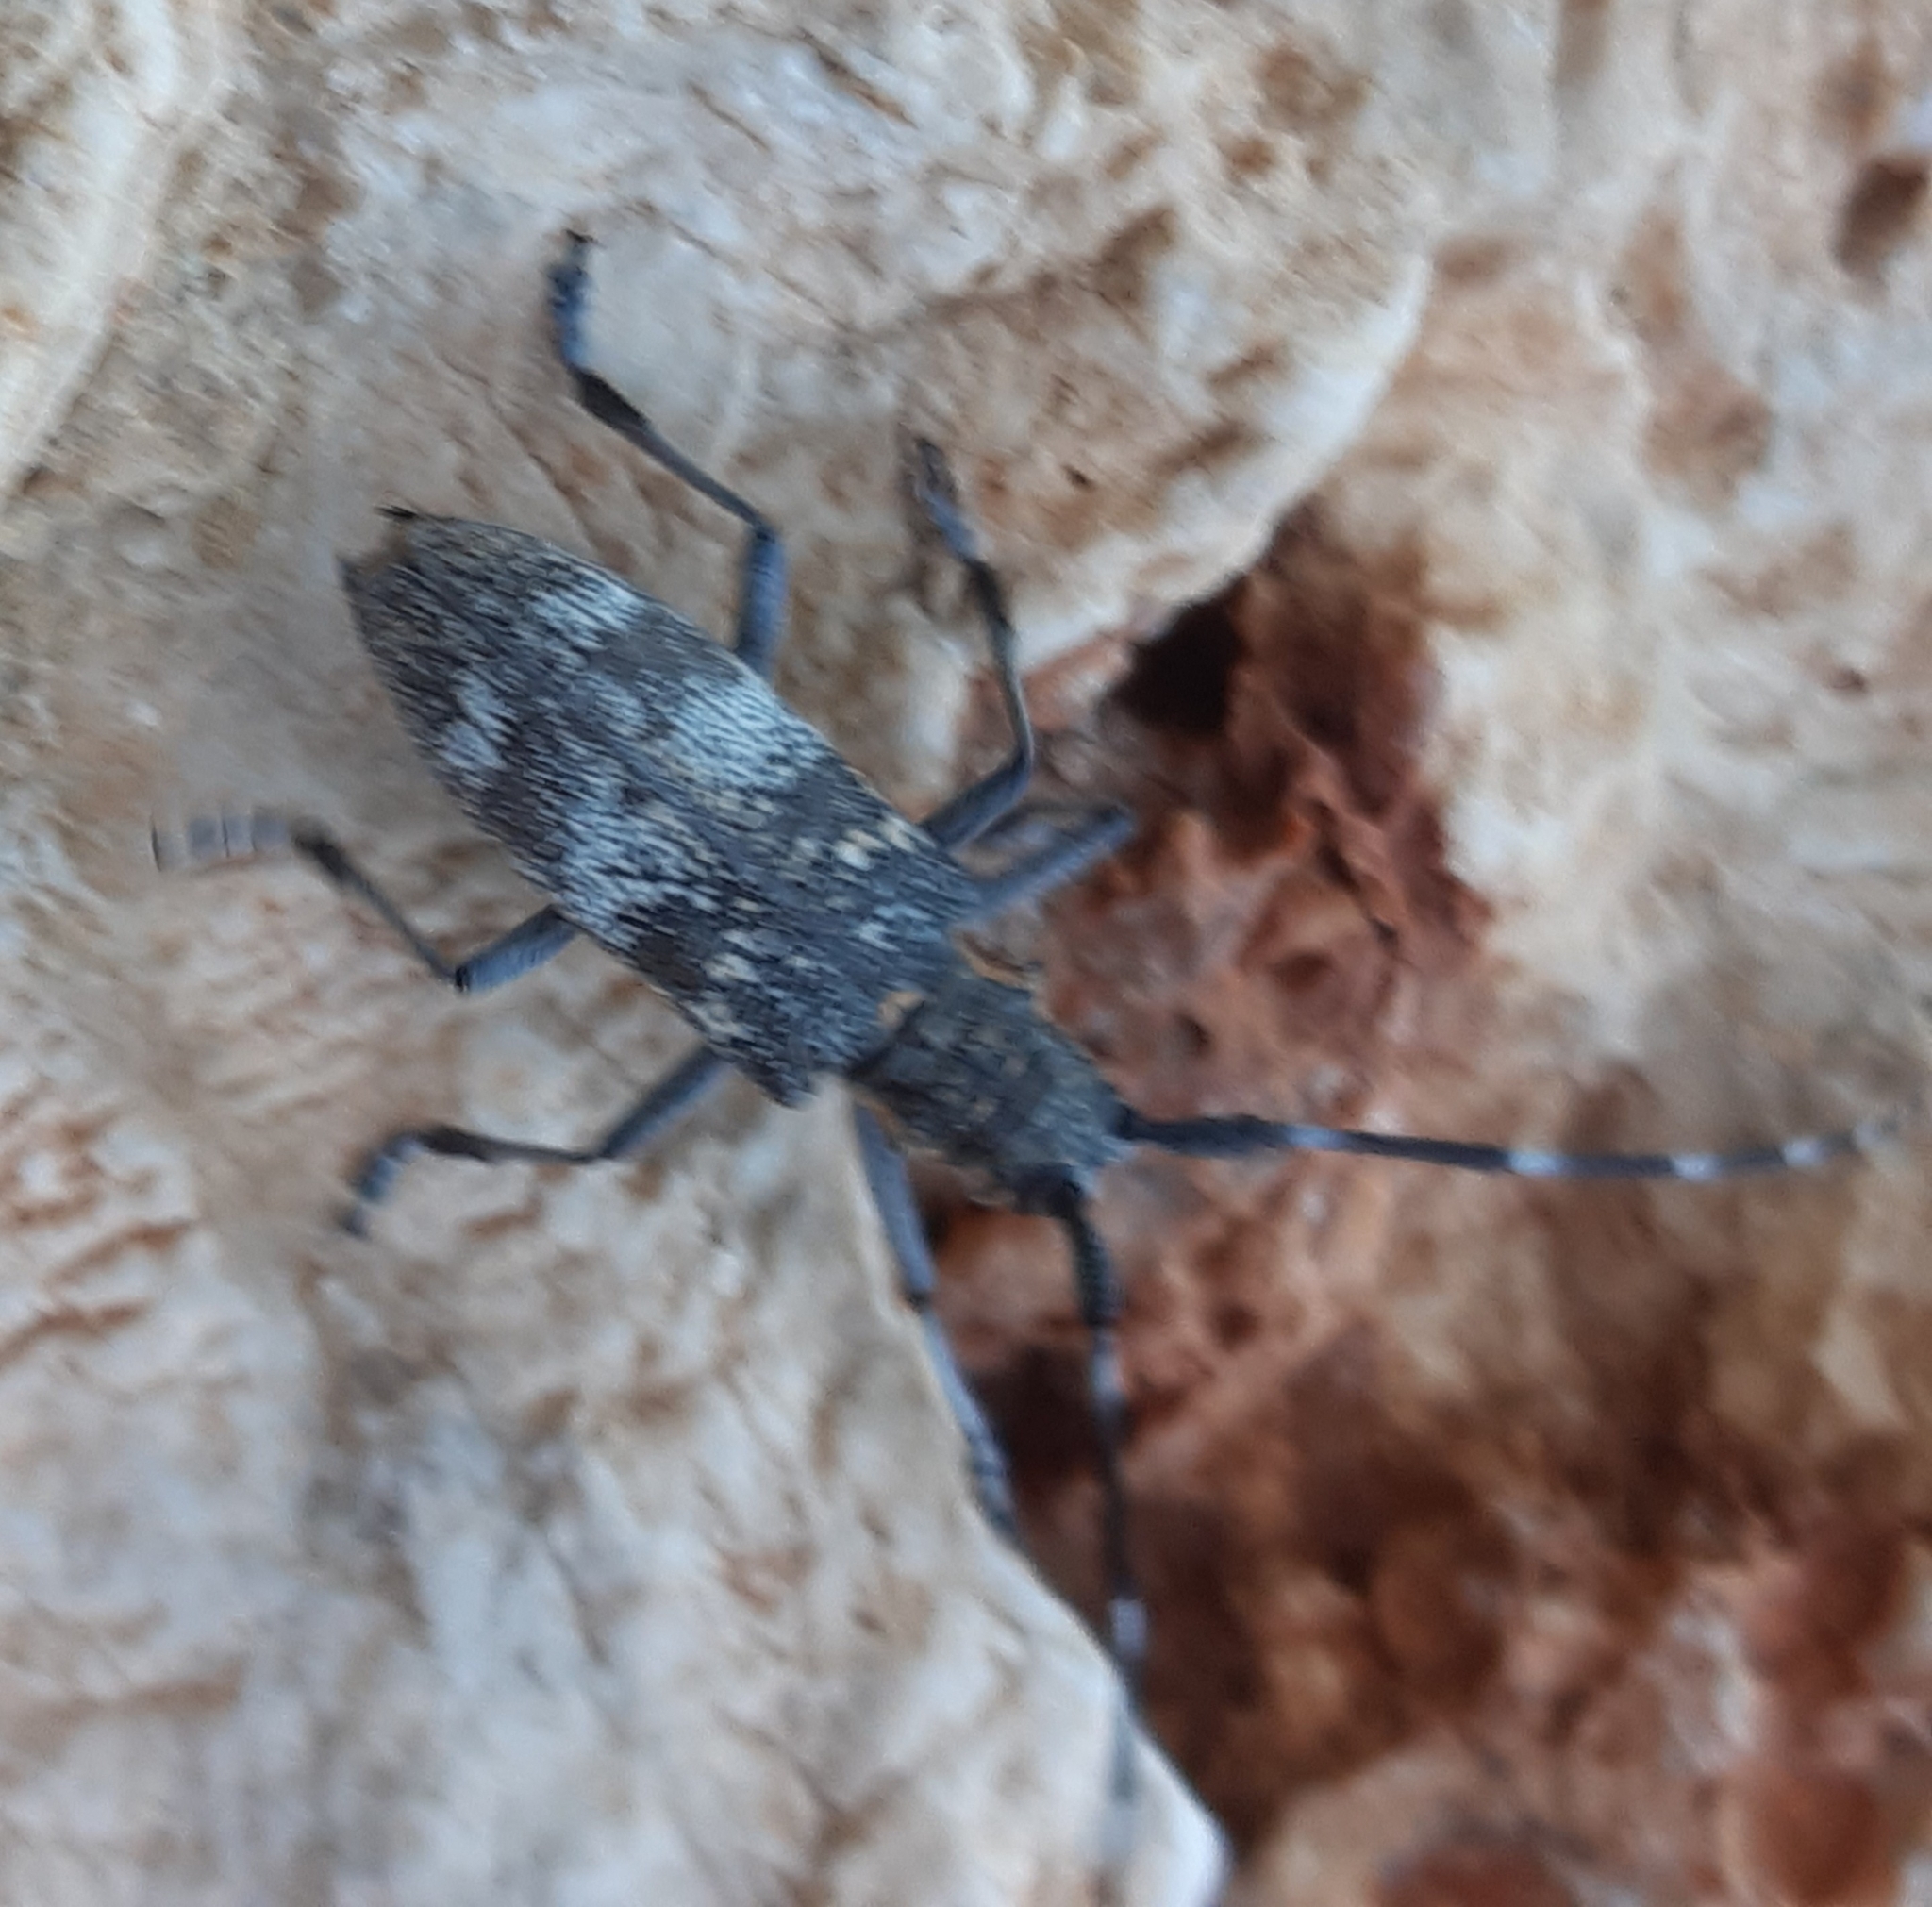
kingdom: Animalia
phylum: Arthropoda
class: Insecta
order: Coleoptera
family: Cerambycidae
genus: Monochamus
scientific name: Monochamus galloprovincialis
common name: Pine sawyer
